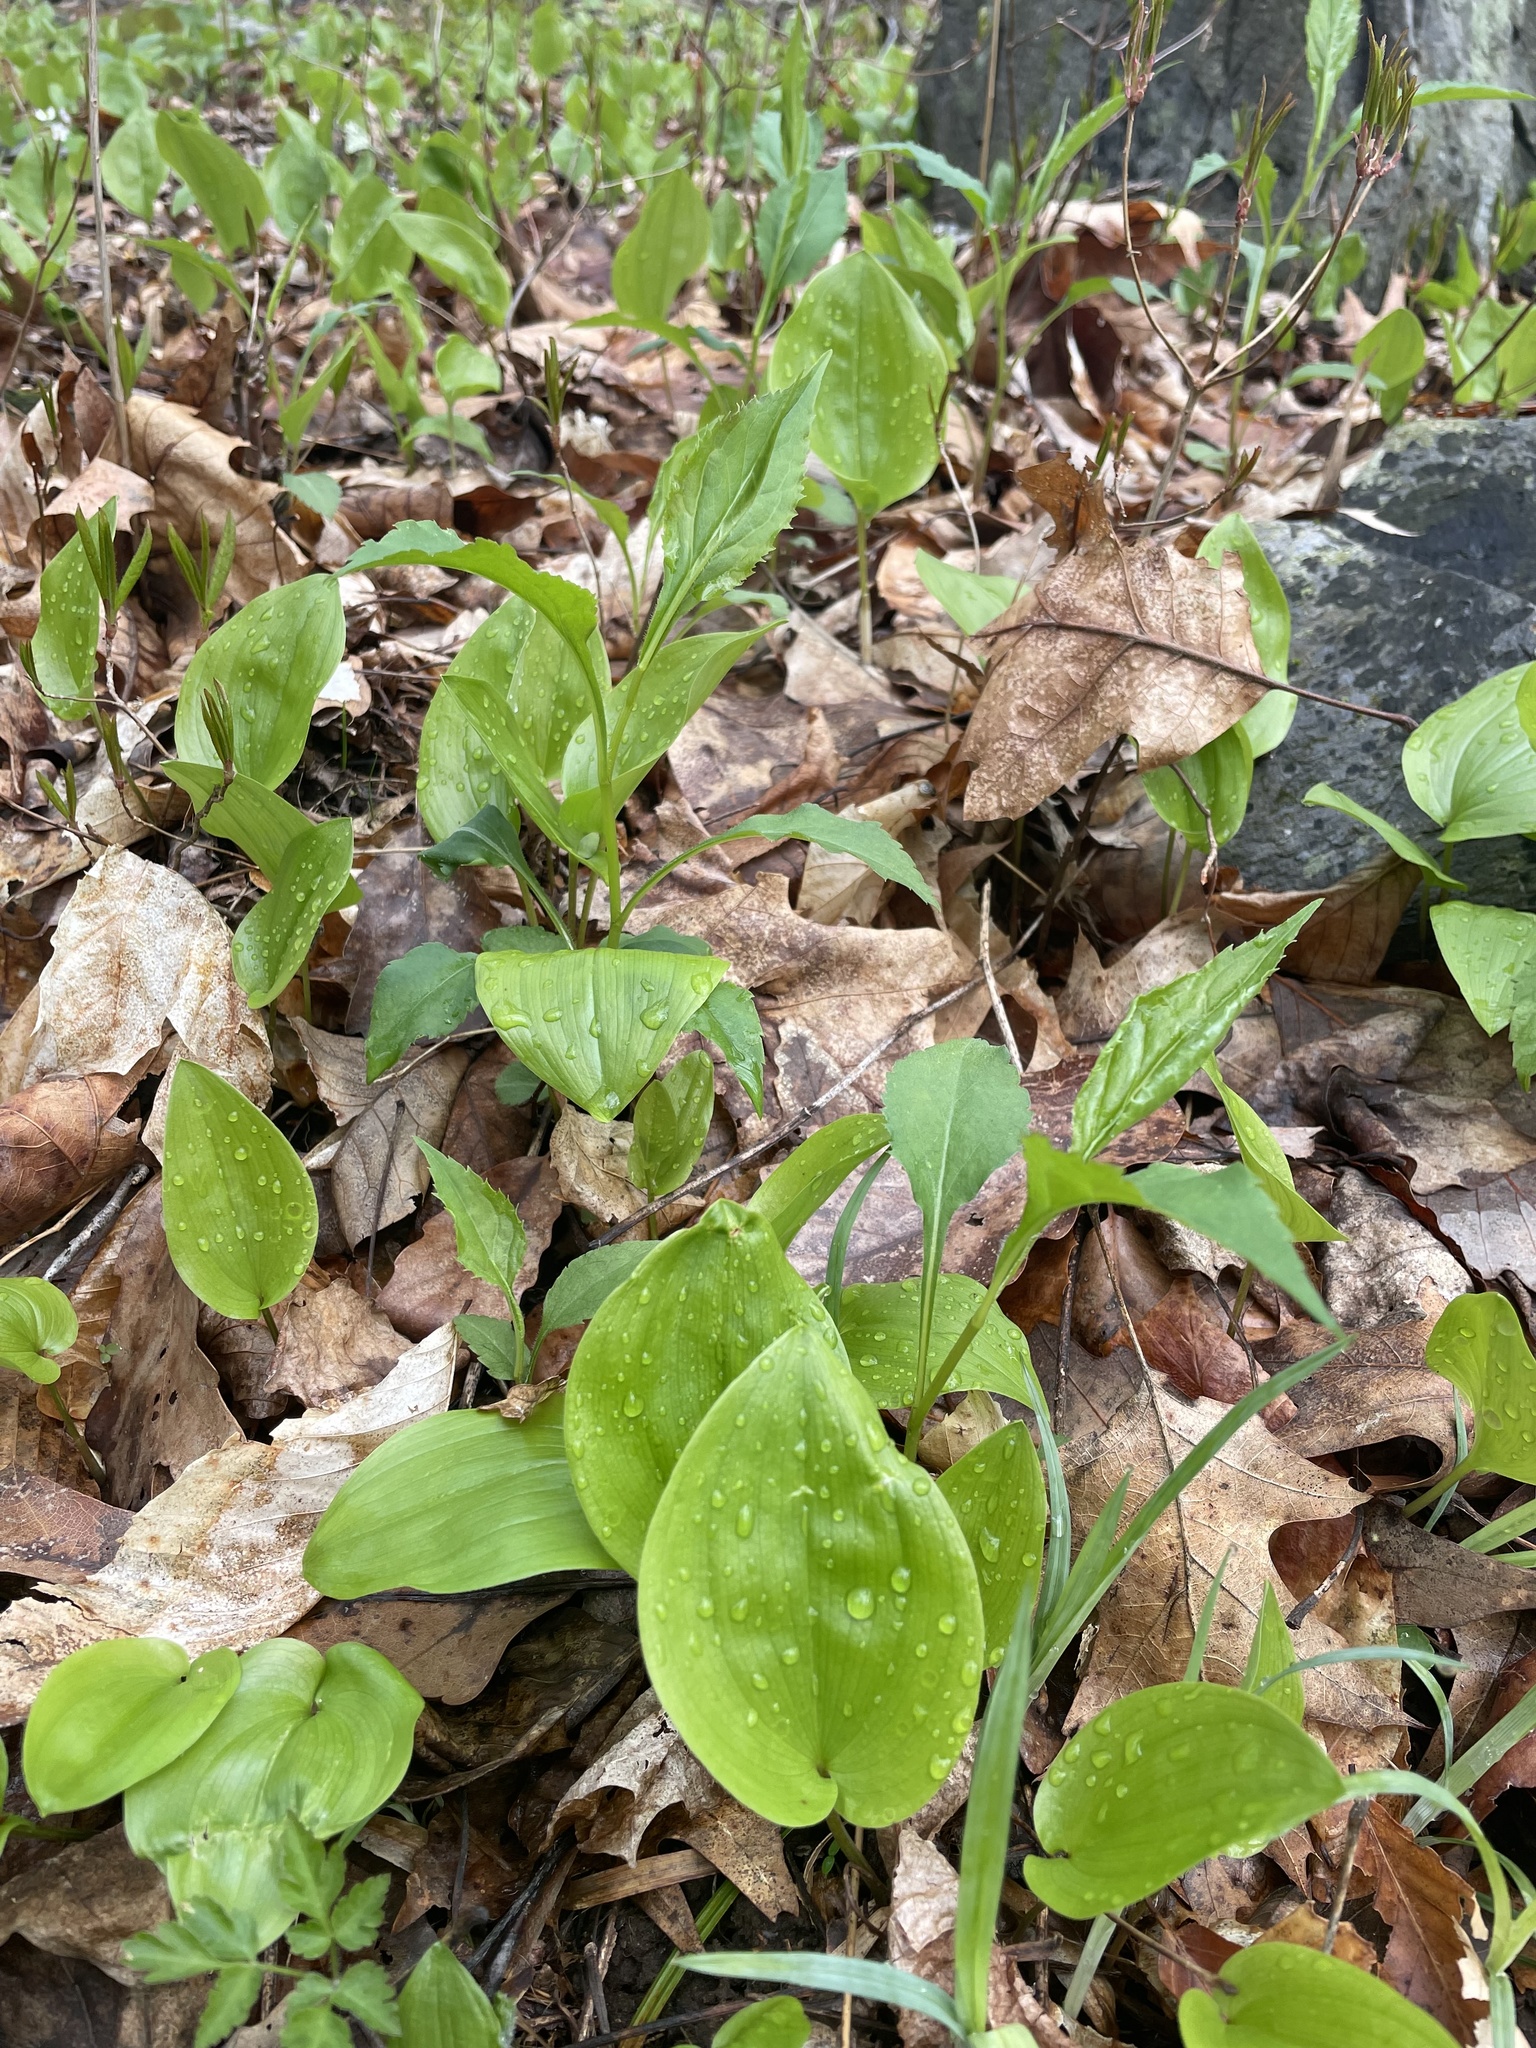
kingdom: Plantae
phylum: Tracheophyta
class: Liliopsida
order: Asparagales
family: Asparagaceae
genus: Maianthemum
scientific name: Maianthemum canadense
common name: False lily-of-the-valley
